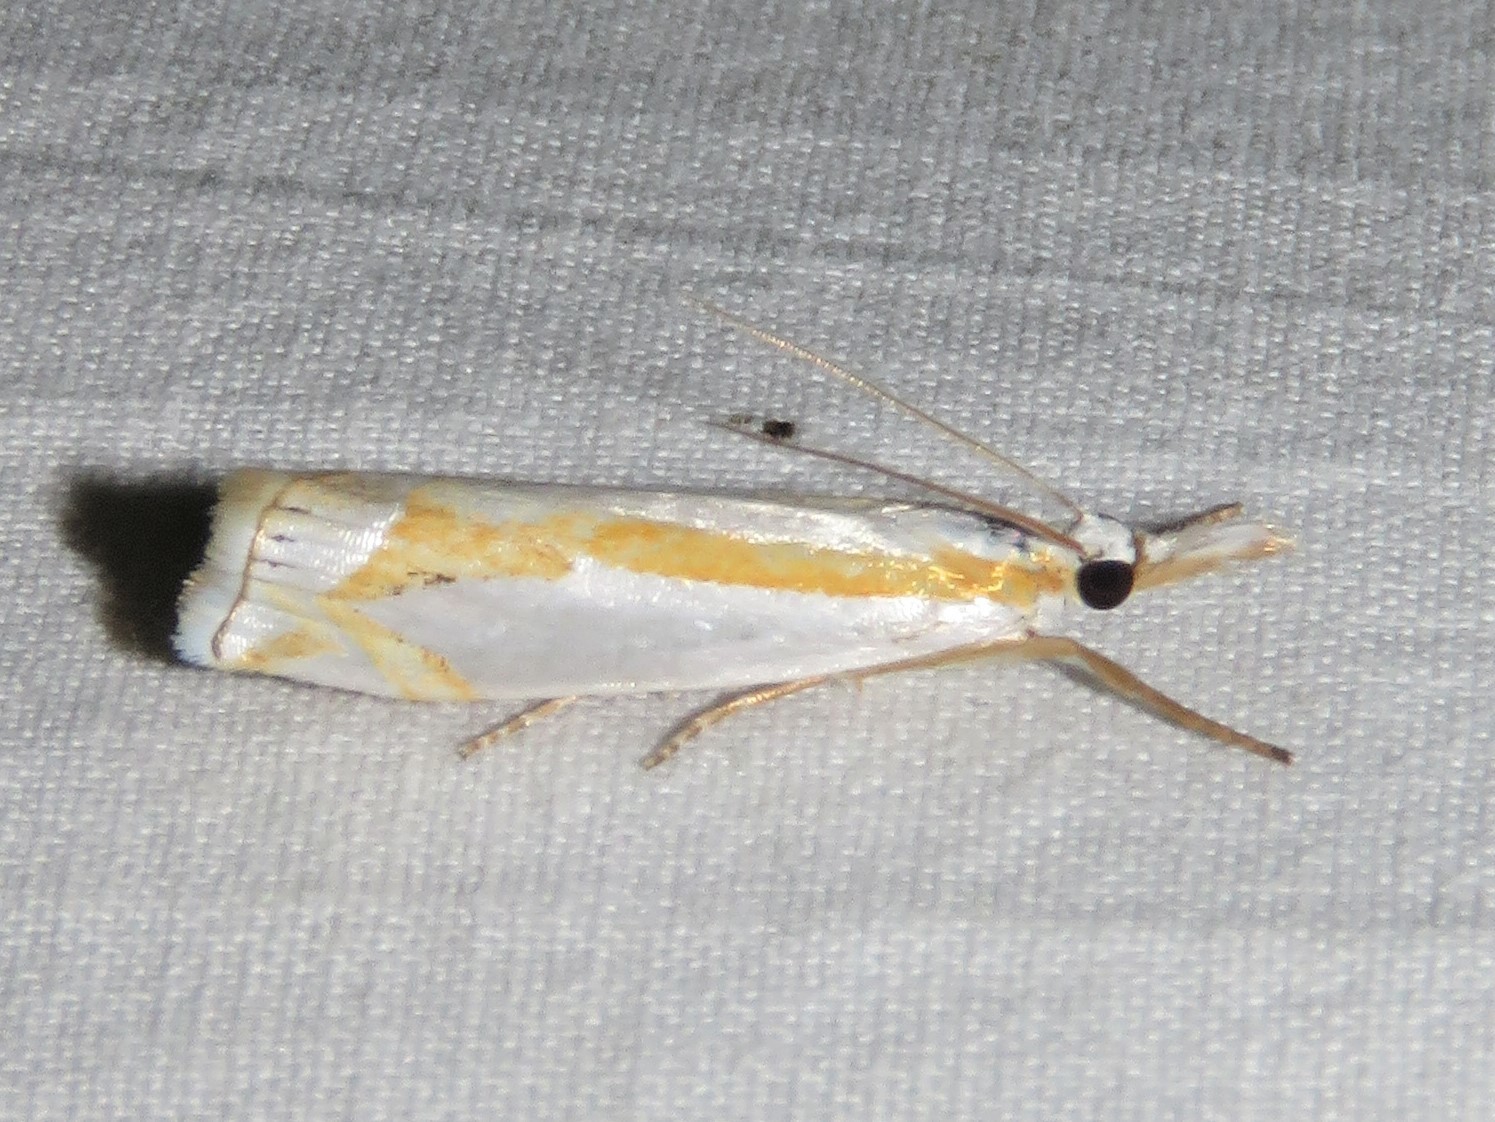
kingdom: Animalia
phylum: Arthropoda
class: Insecta
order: Lepidoptera
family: Crambidae
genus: Crambus
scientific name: Crambus girardellus
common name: Girard's grass-veneer
